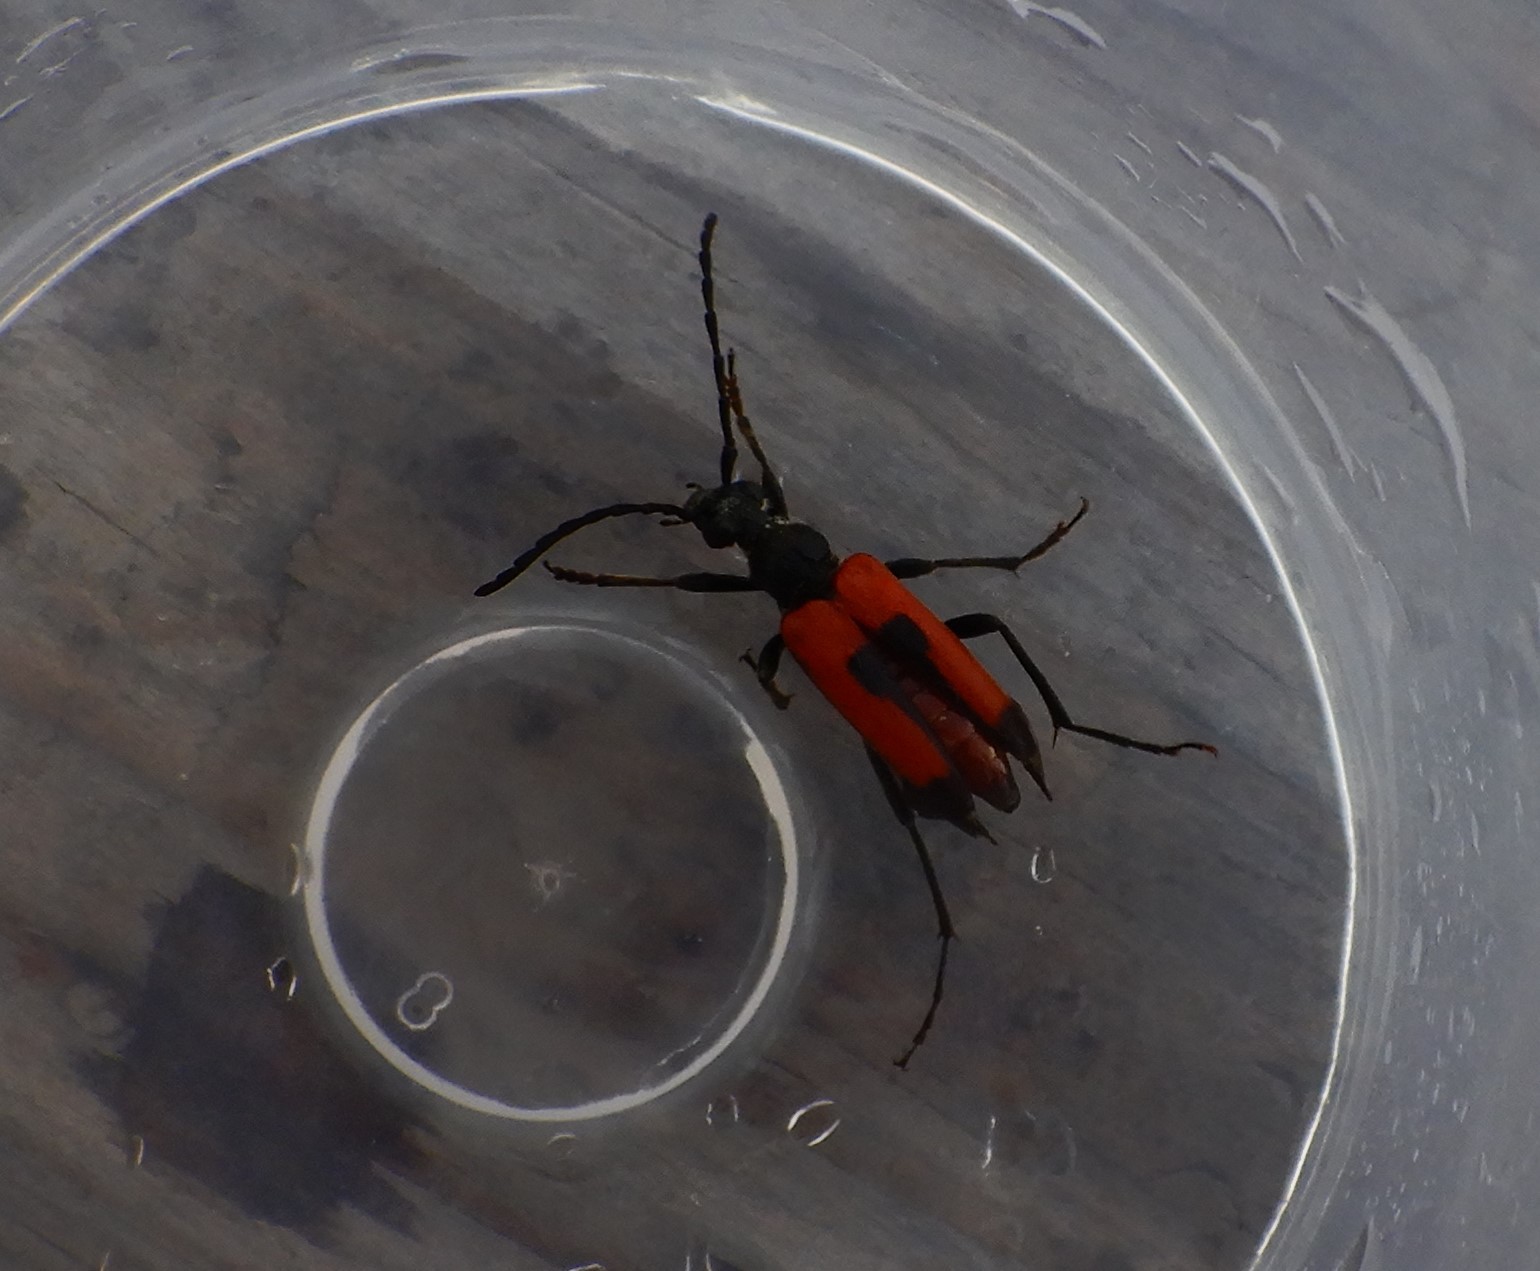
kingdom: Animalia
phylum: Arthropoda
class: Insecta
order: Coleoptera
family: Cerambycidae
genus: Stictoleptura
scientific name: Stictoleptura cordigera
